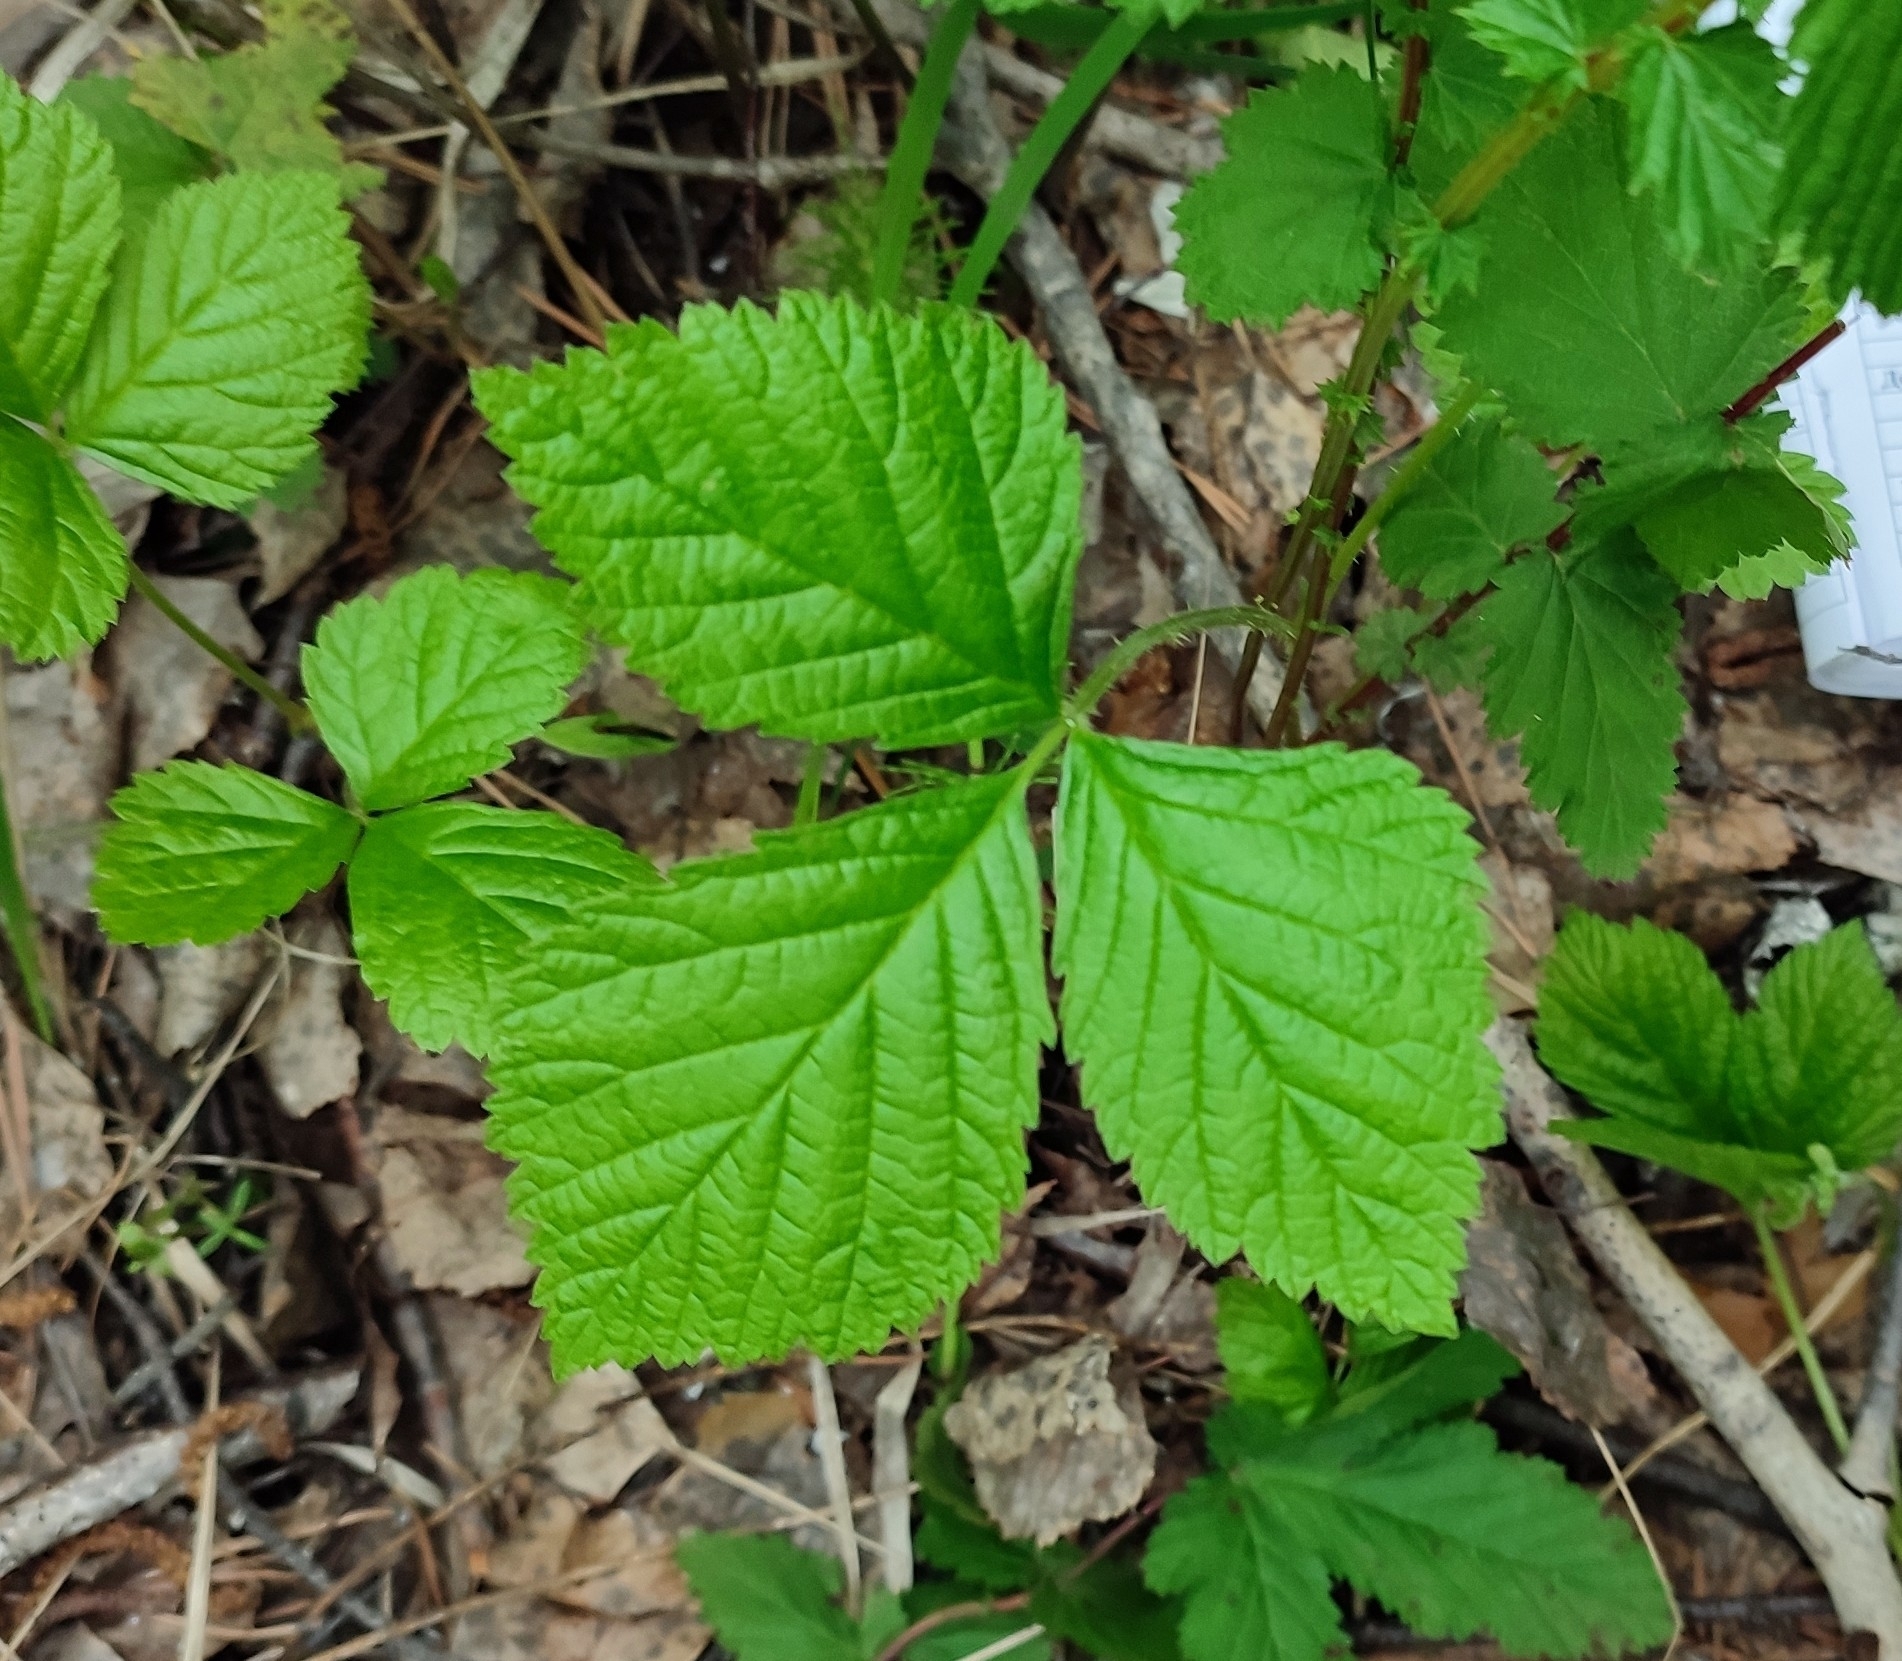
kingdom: Plantae
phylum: Tracheophyta
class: Magnoliopsida
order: Rosales
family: Rosaceae
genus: Rubus
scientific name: Rubus saxatilis
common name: Stone bramble
